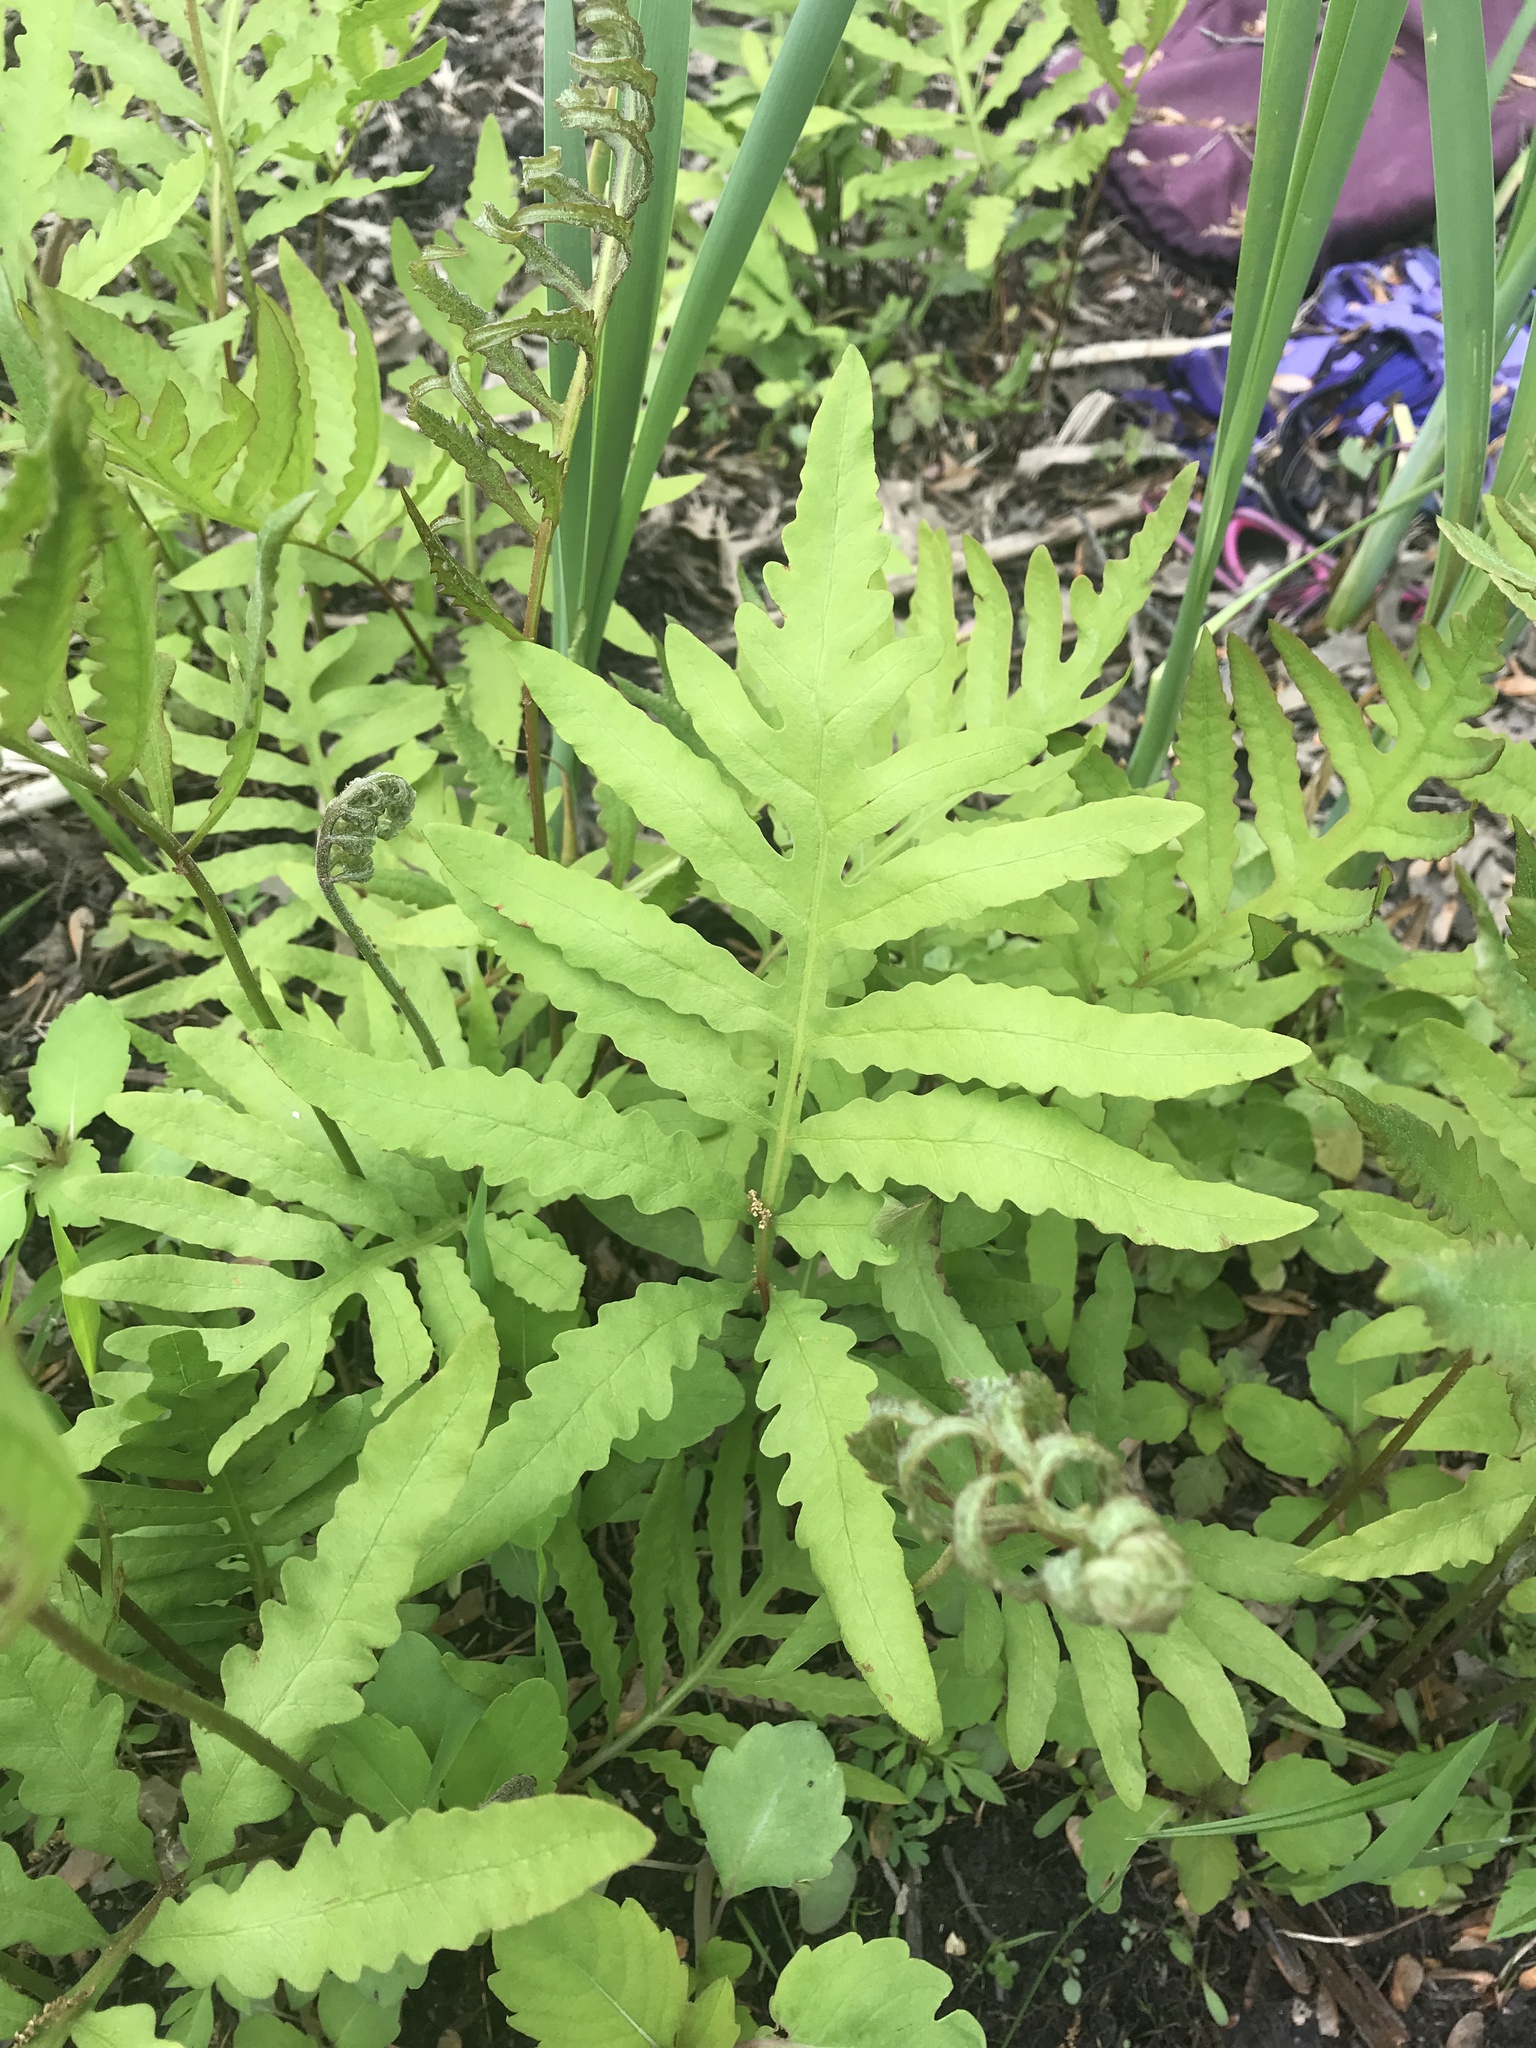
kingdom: Plantae
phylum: Tracheophyta
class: Polypodiopsida
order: Polypodiales
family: Onocleaceae
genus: Onoclea
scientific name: Onoclea sensibilis
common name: Sensitive fern
